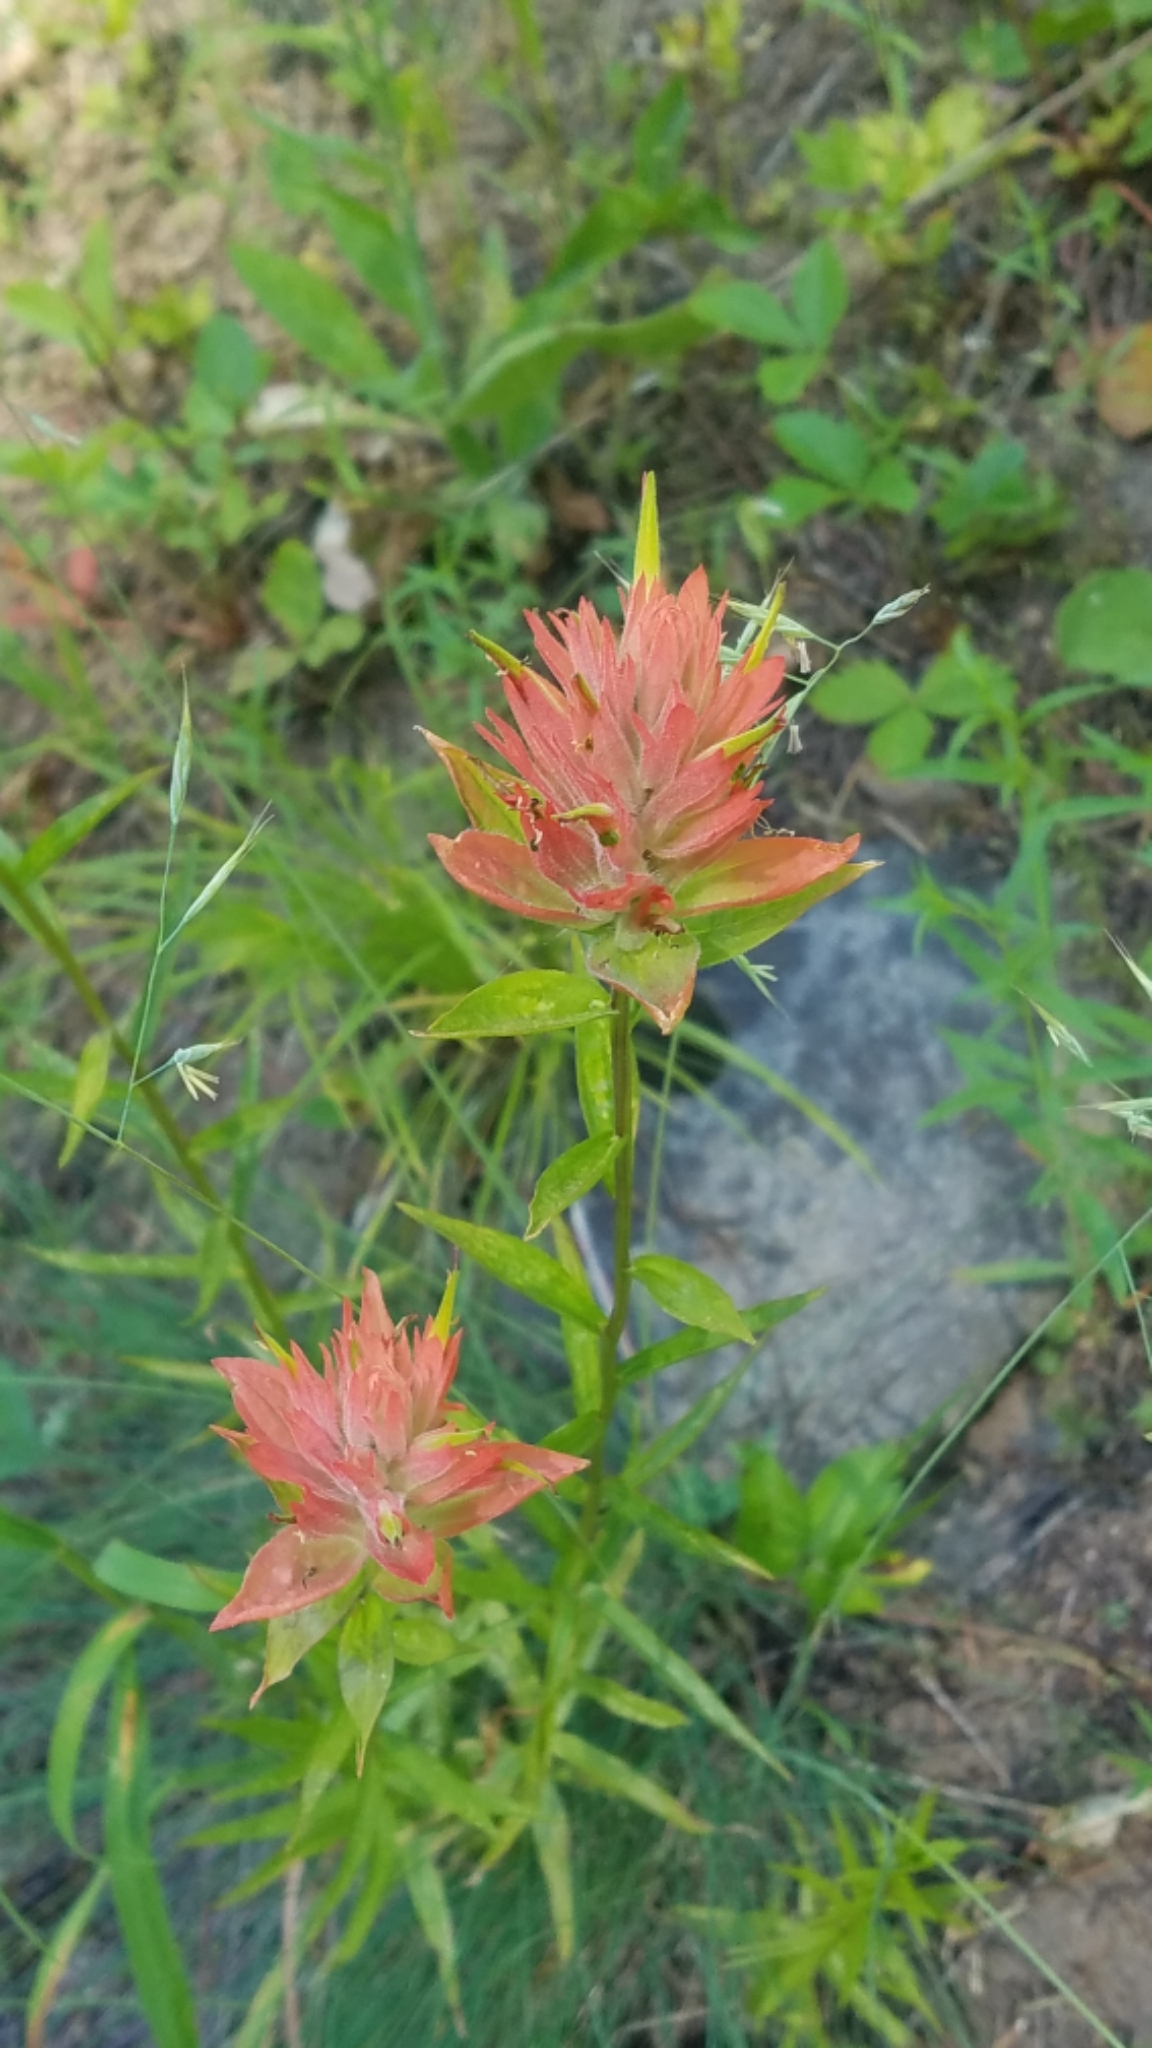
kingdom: Plantae
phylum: Tracheophyta
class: Magnoliopsida
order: Lamiales
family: Orobanchaceae
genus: Castilleja
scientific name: Castilleja miniata
